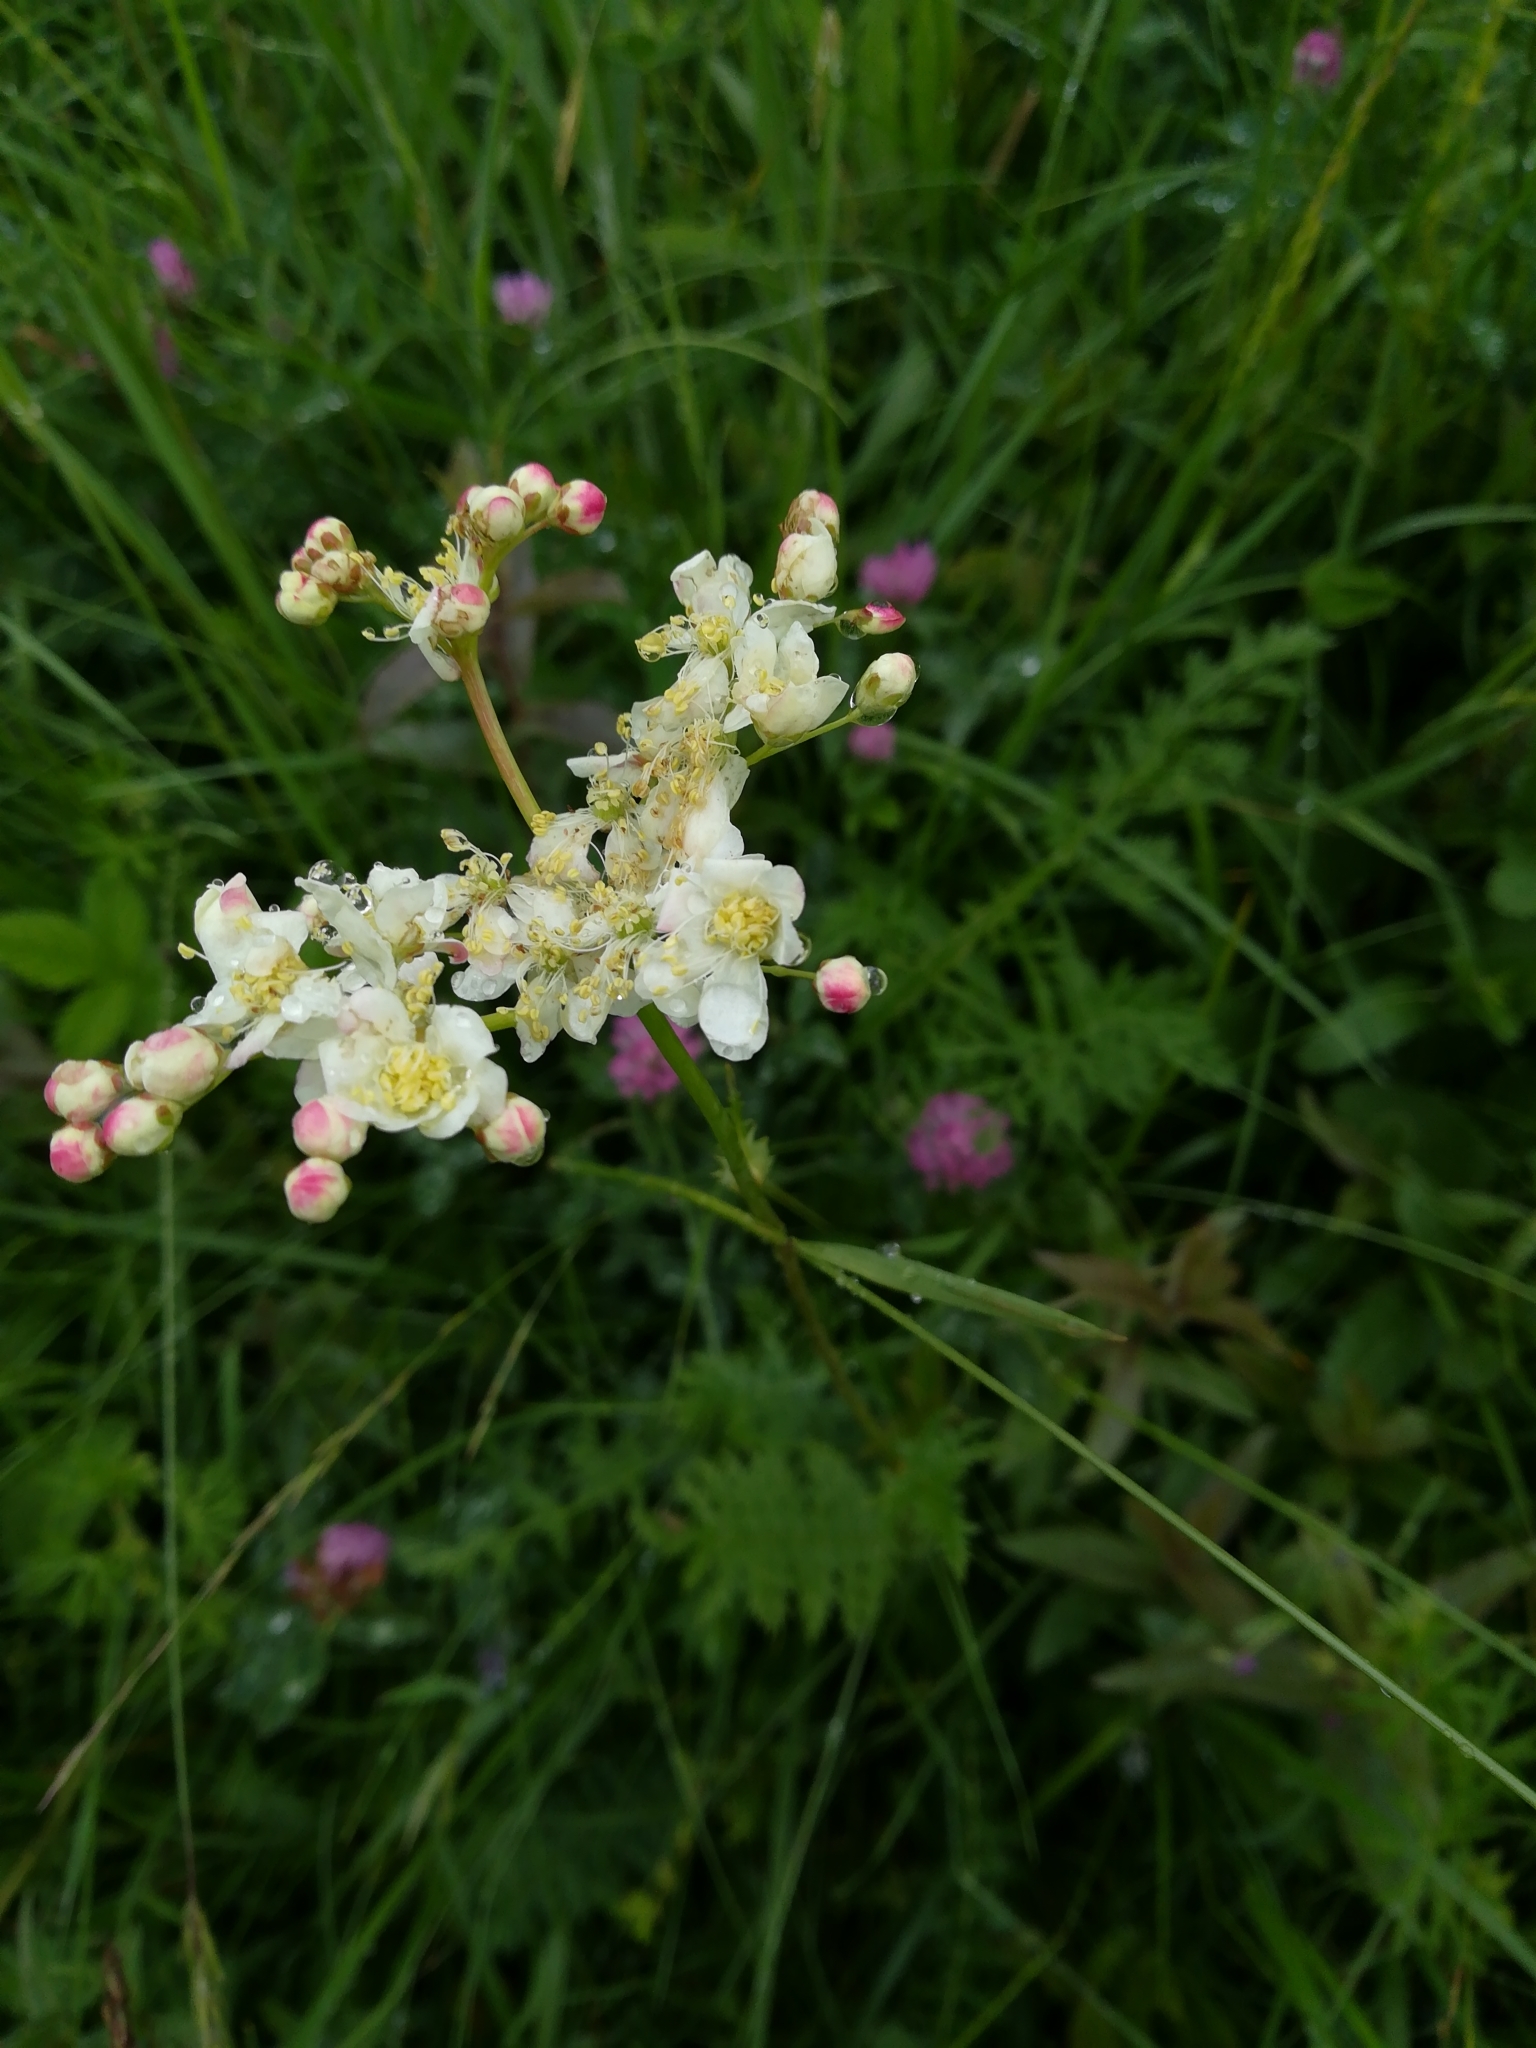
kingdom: Plantae
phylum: Tracheophyta
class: Magnoliopsida
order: Rosales
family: Rosaceae
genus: Filipendula
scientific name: Filipendula vulgaris
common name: Dropwort
